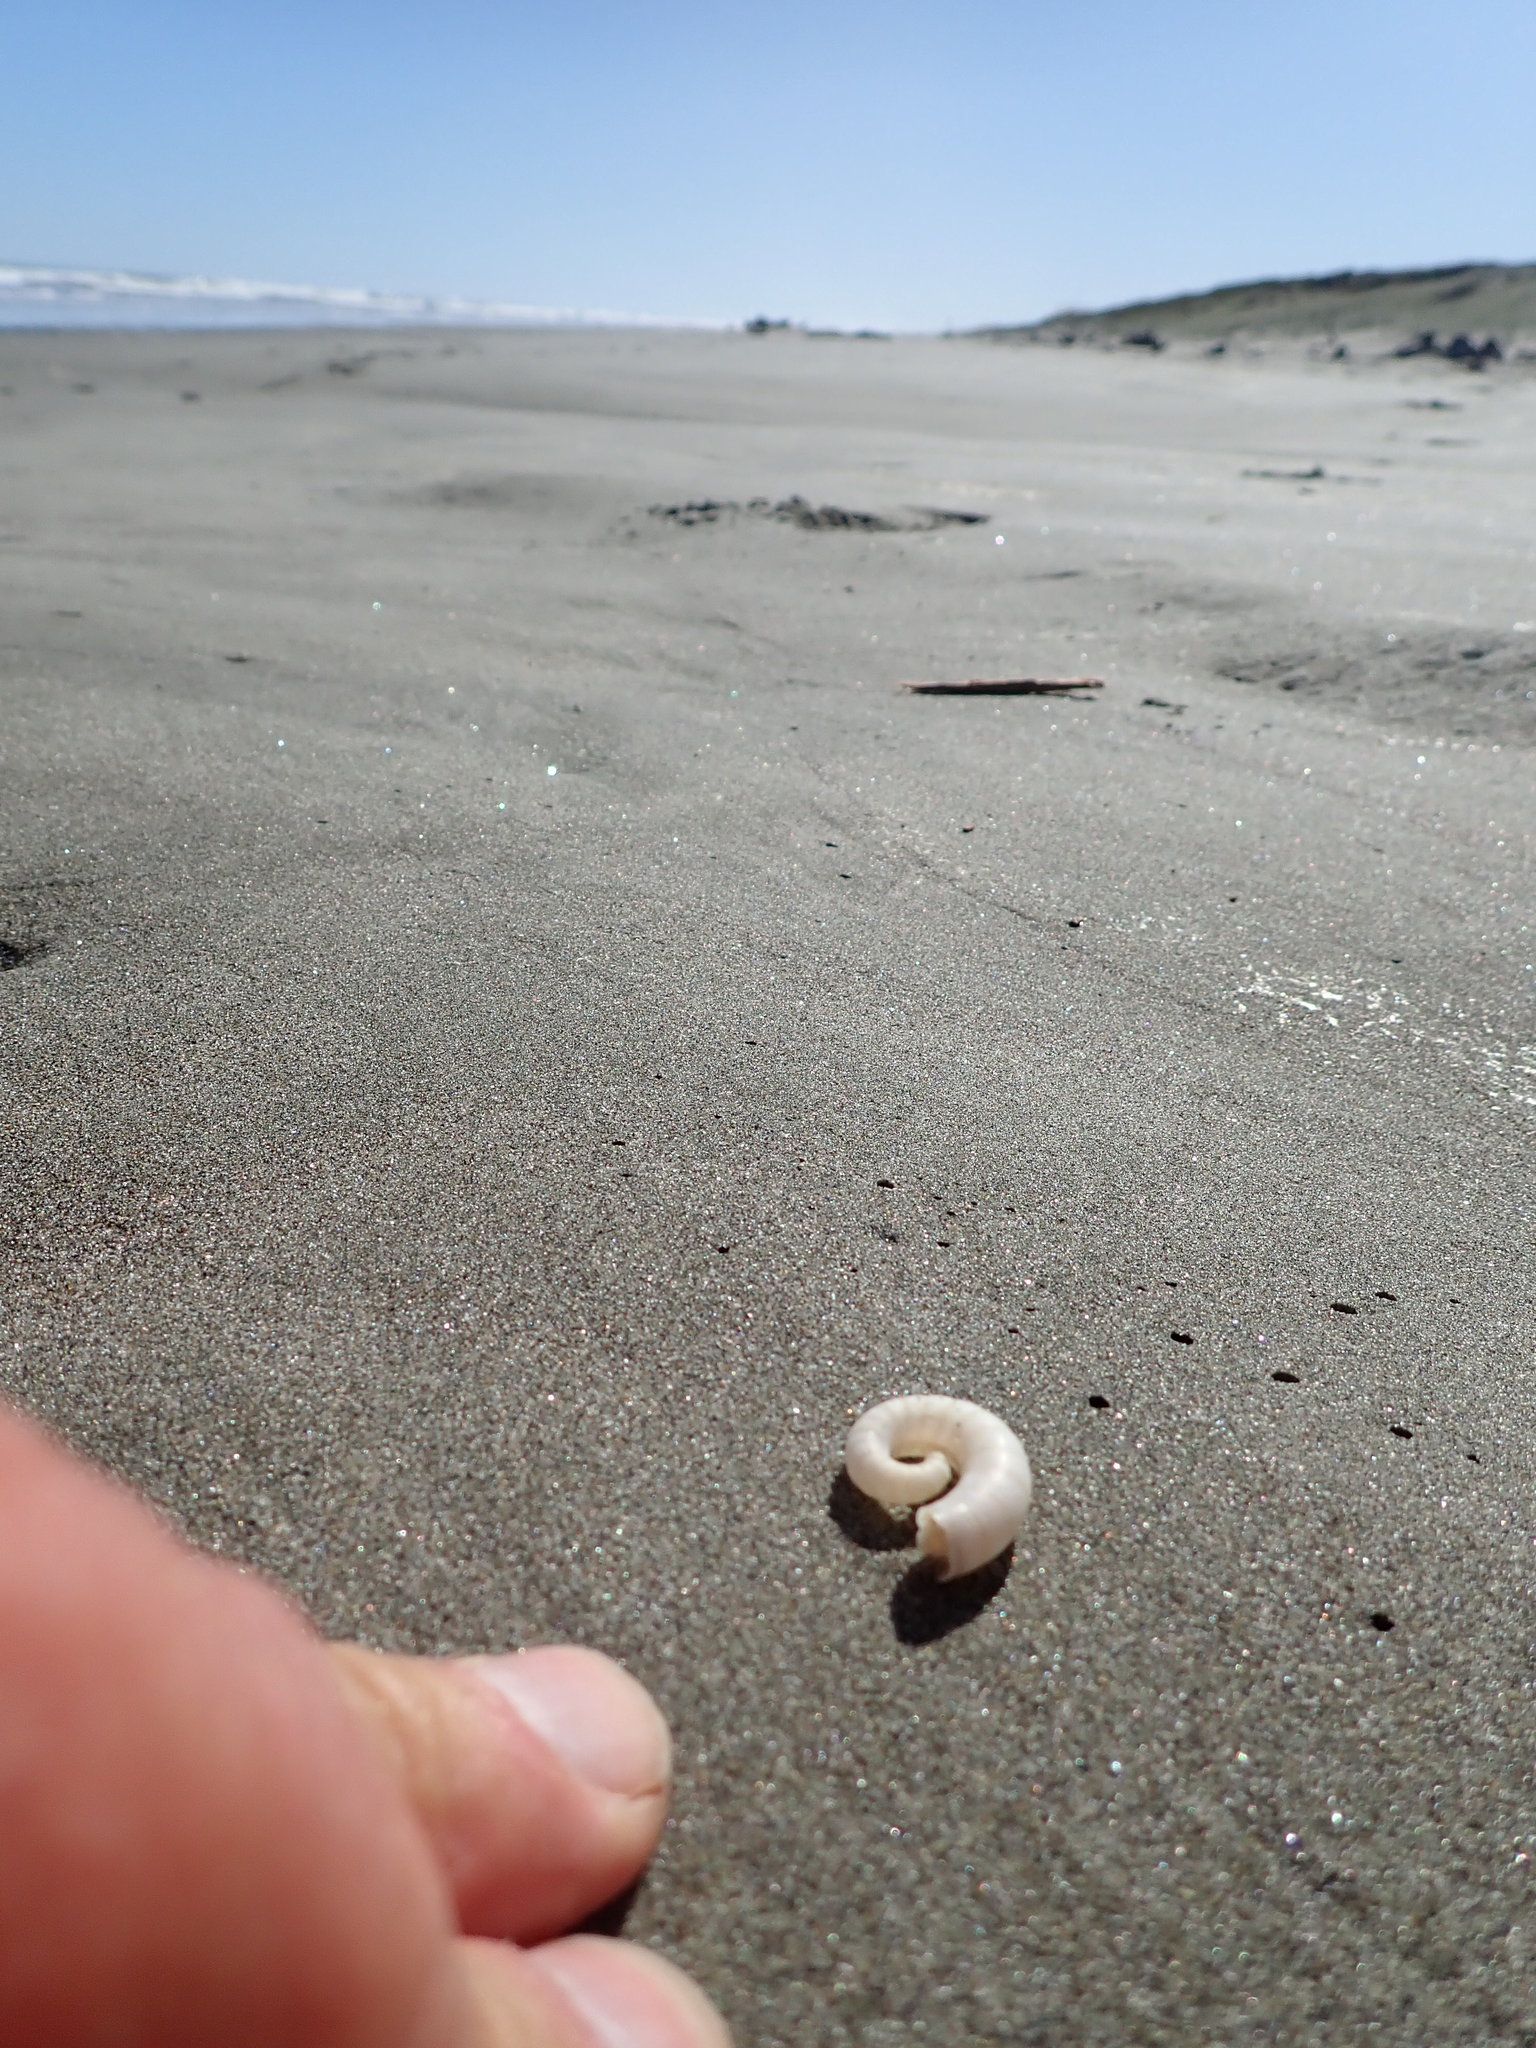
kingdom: Animalia
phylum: Mollusca
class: Cephalopoda
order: Spirulida
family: Spirulidae
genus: Spirula
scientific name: Spirula spirula
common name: Ram's horn squid
